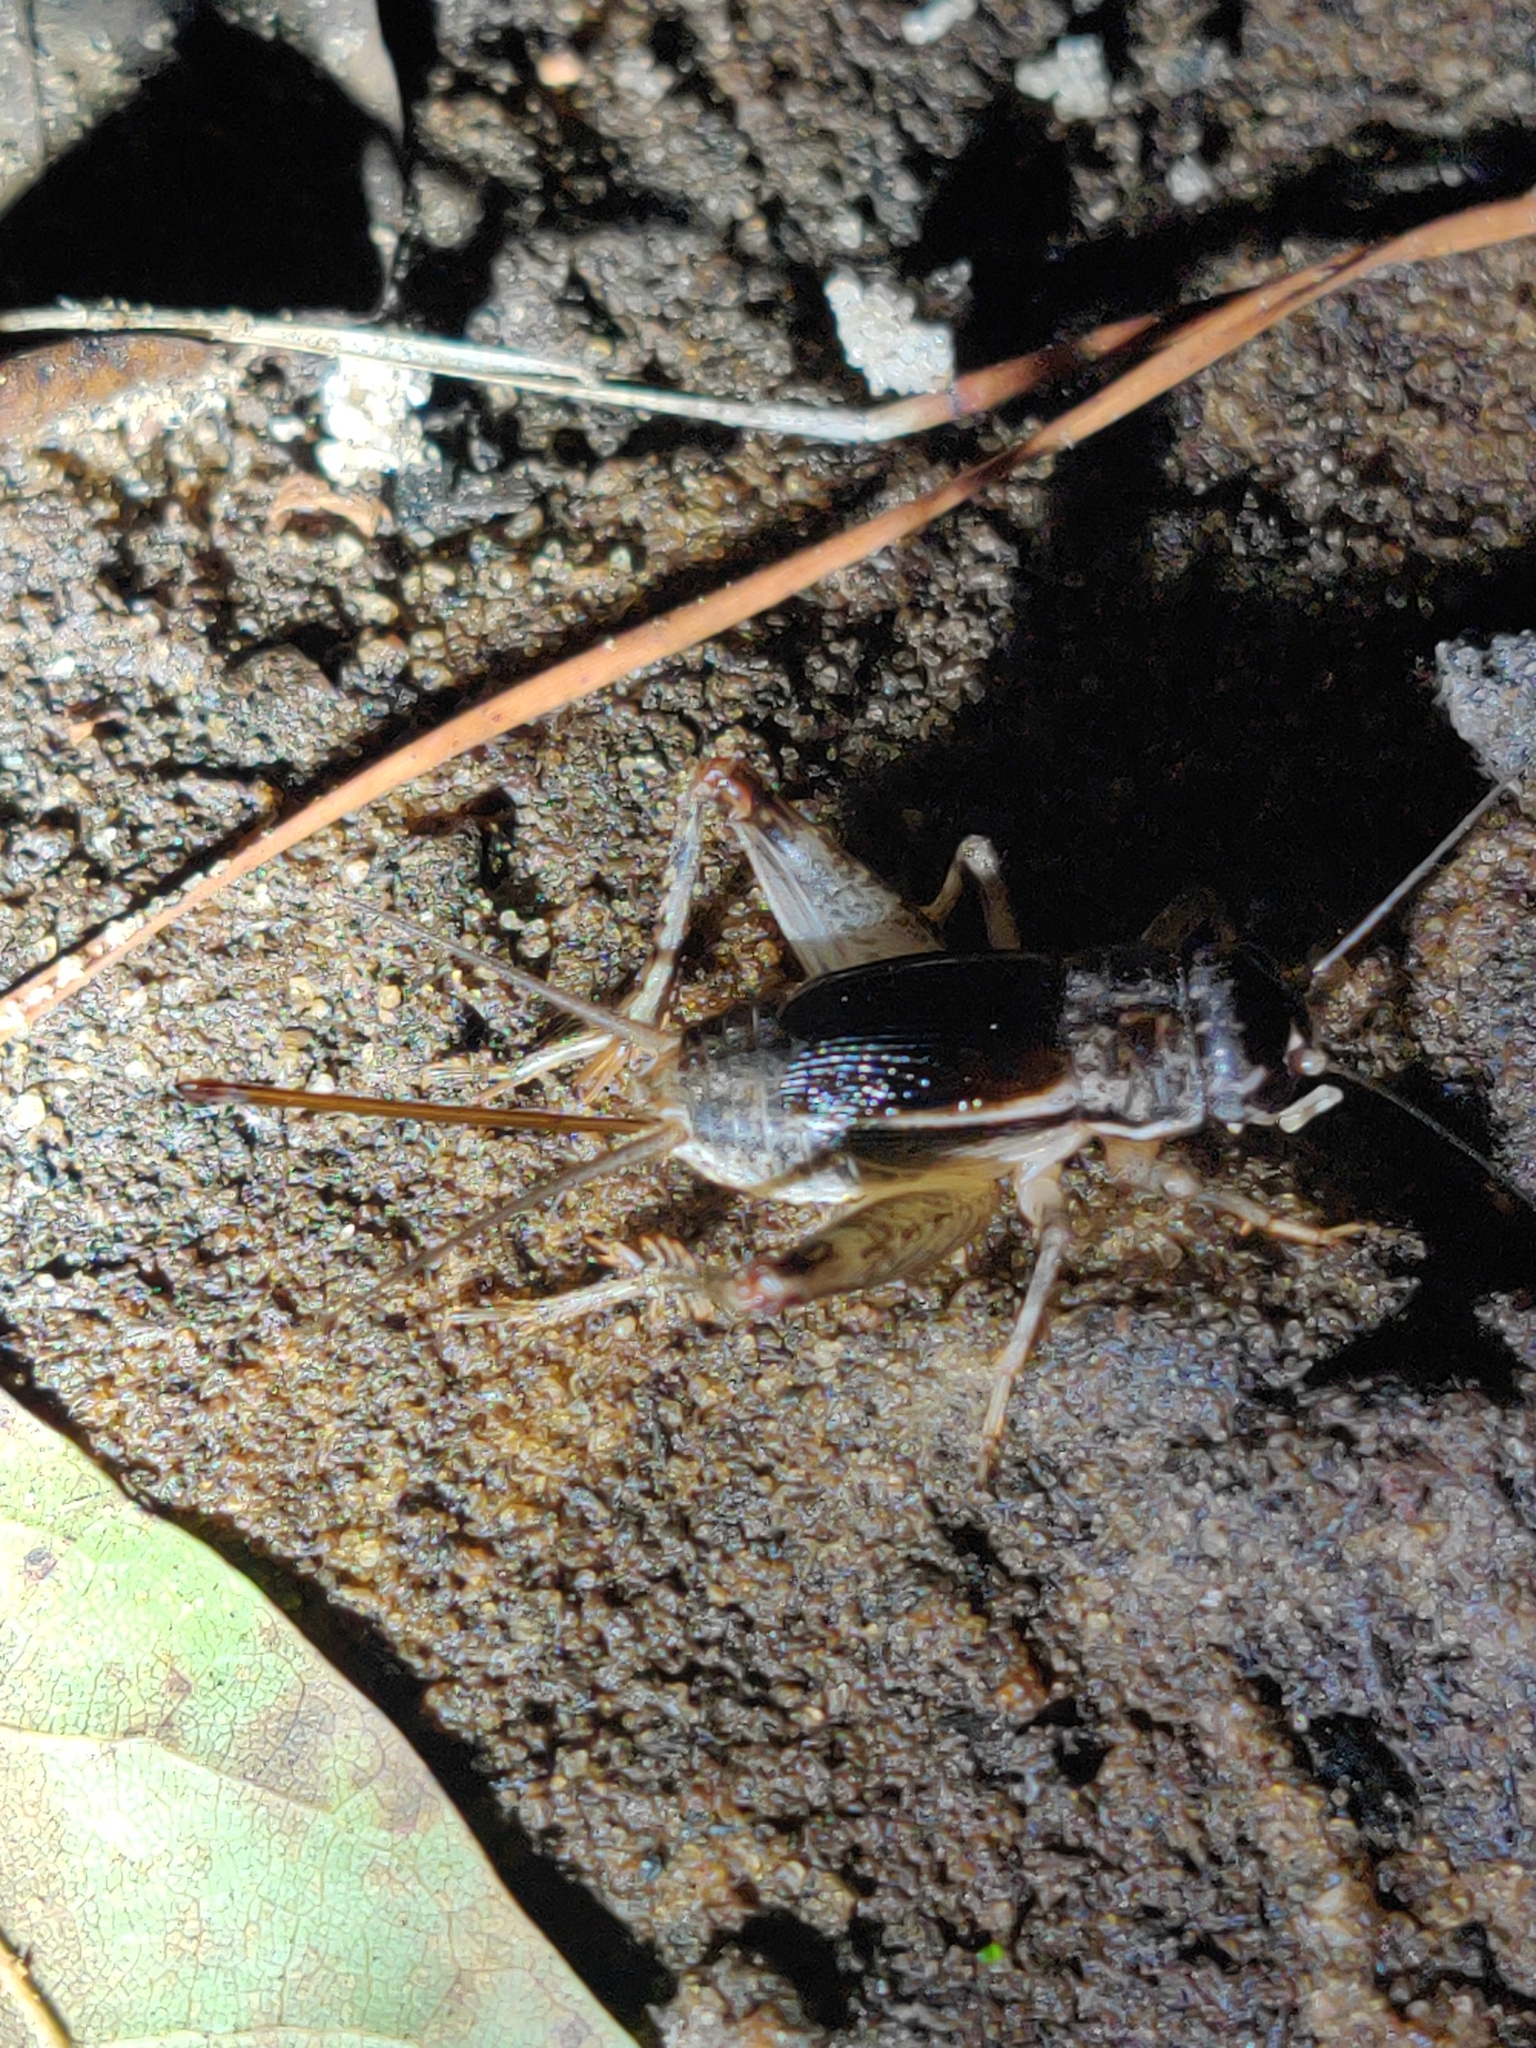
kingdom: Animalia
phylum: Arthropoda
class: Insecta
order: Orthoptera
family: Gryllidae
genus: Velarifictorus
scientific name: Velarifictorus micado
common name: Japanese burrowing cricket
